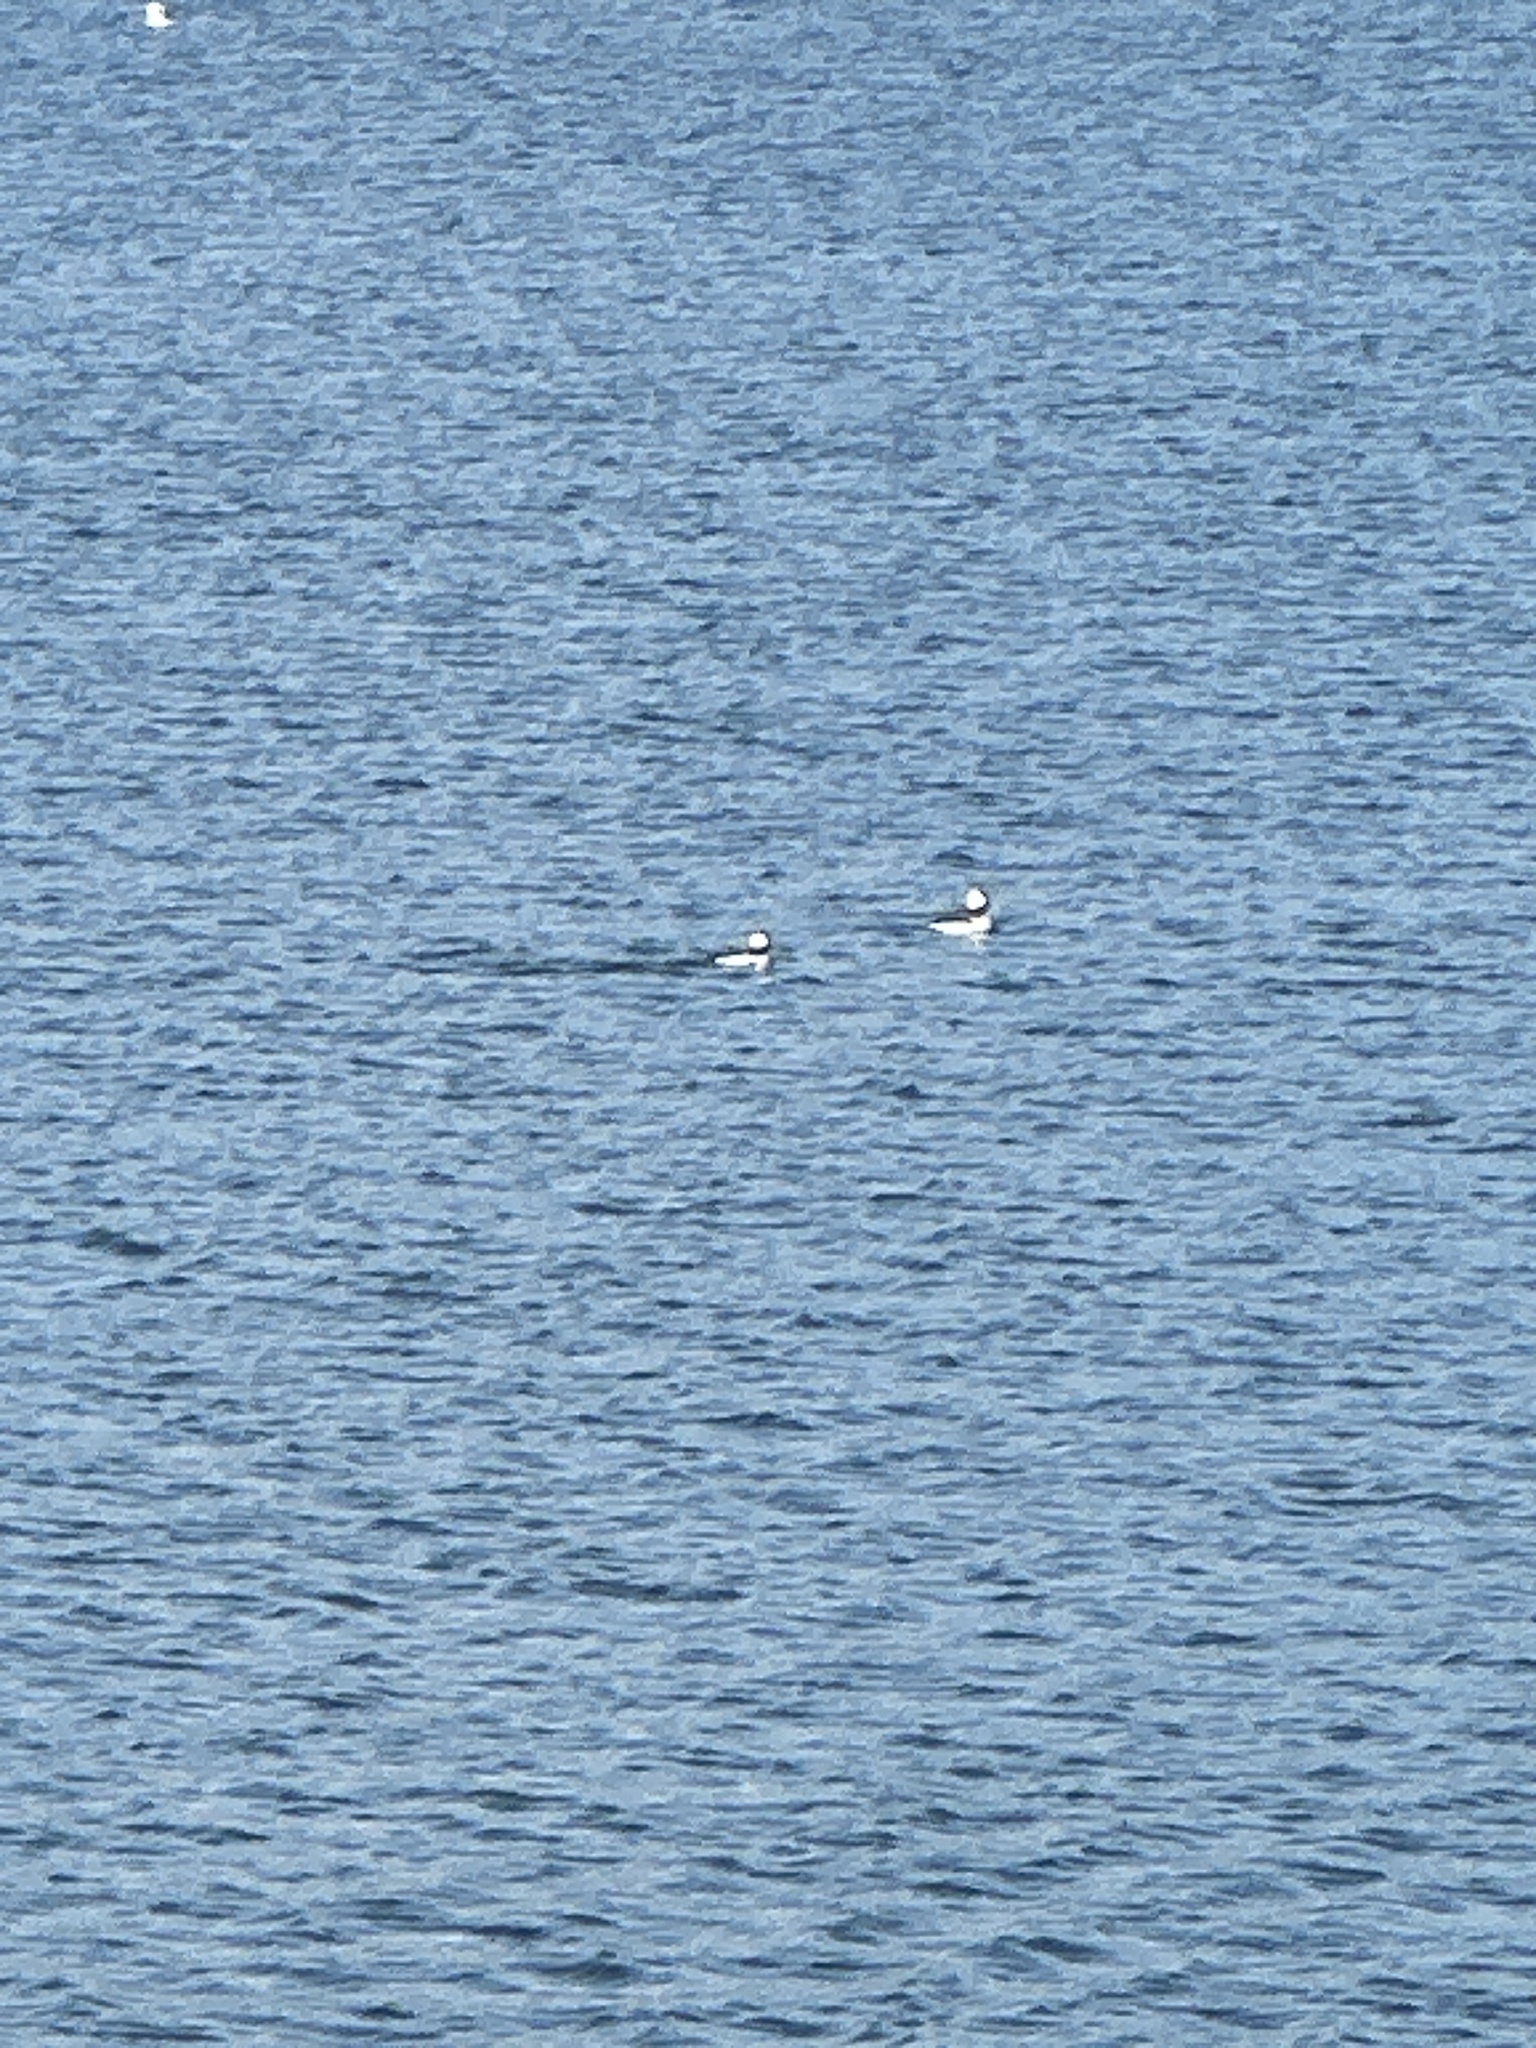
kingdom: Animalia
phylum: Chordata
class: Aves
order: Anseriformes
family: Anatidae
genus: Bucephala
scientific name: Bucephala albeola
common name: Bufflehead
